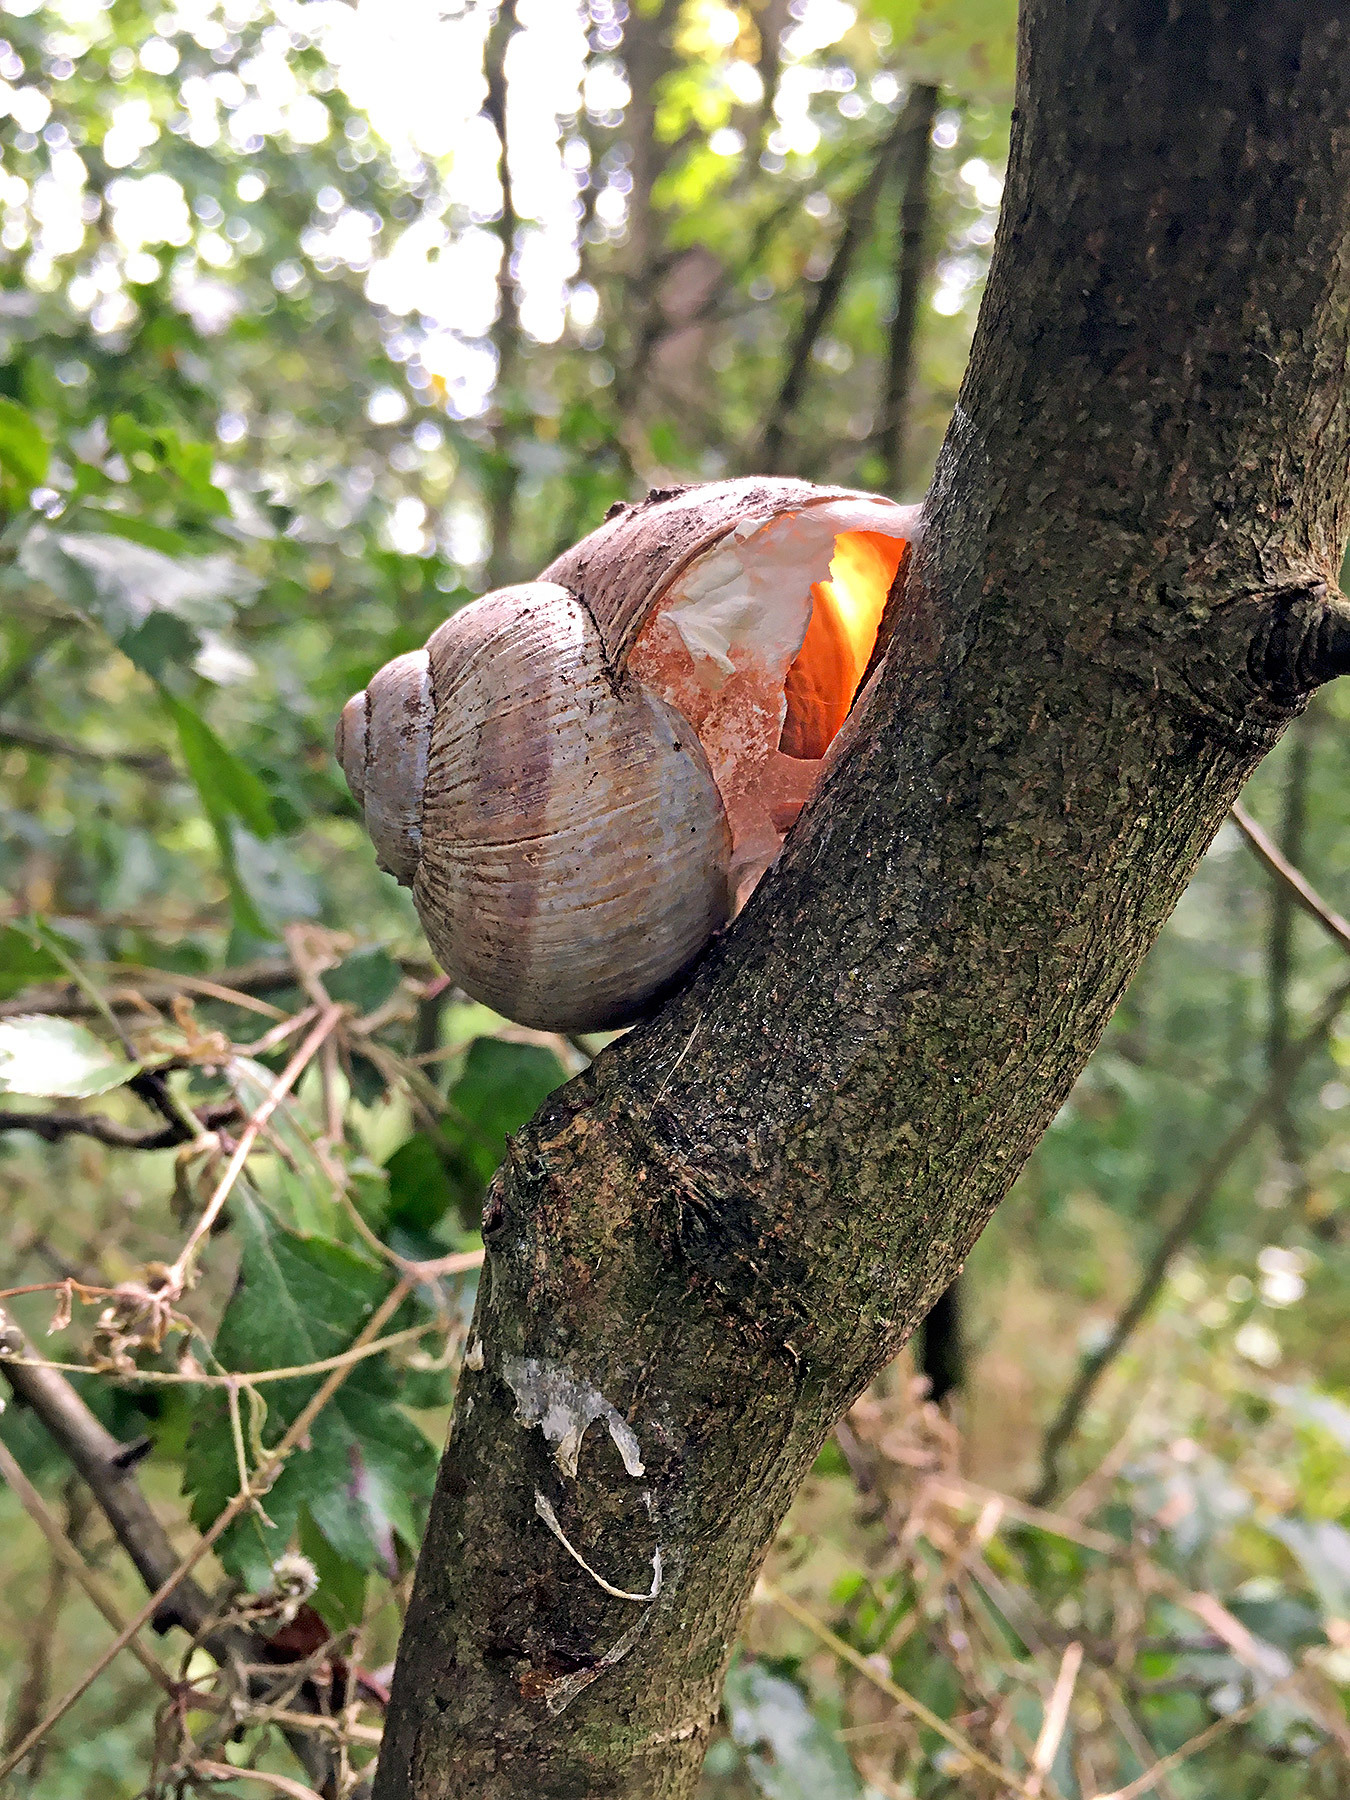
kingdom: Animalia
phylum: Mollusca
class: Gastropoda
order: Stylommatophora
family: Helicidae
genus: Helix
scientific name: Helix pomatia
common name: Roman snail
